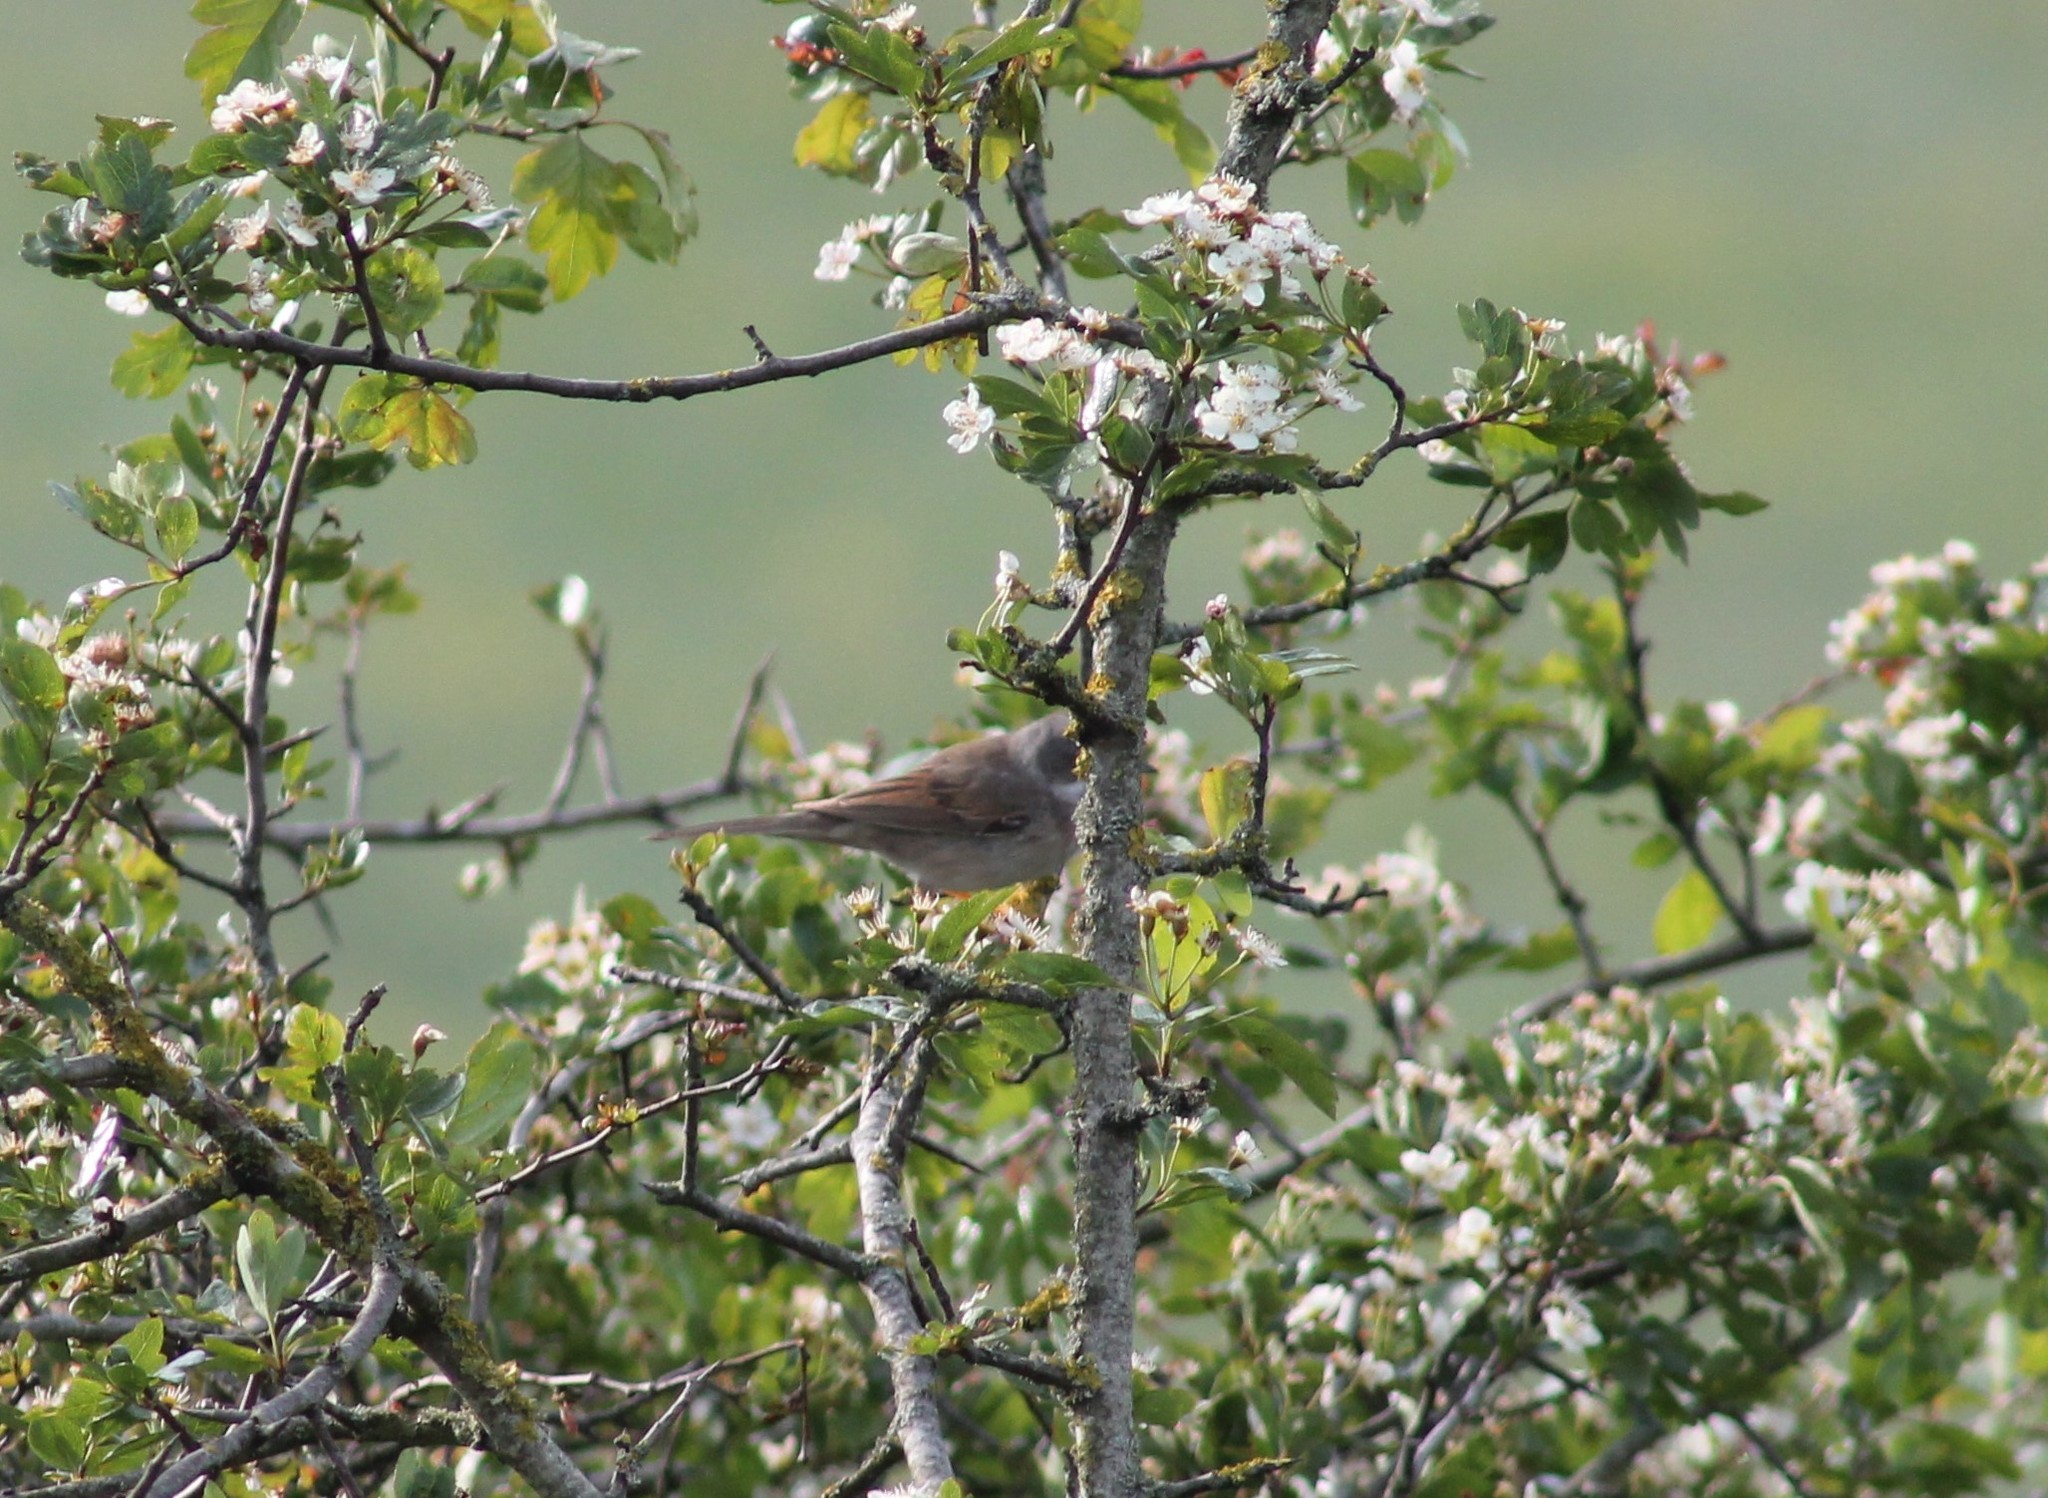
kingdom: Animalia
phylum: Chordata
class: Aves
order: Passeriformes
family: Sylviidae
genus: Sylvia
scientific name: Sylvia communis
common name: Common whitethroat
